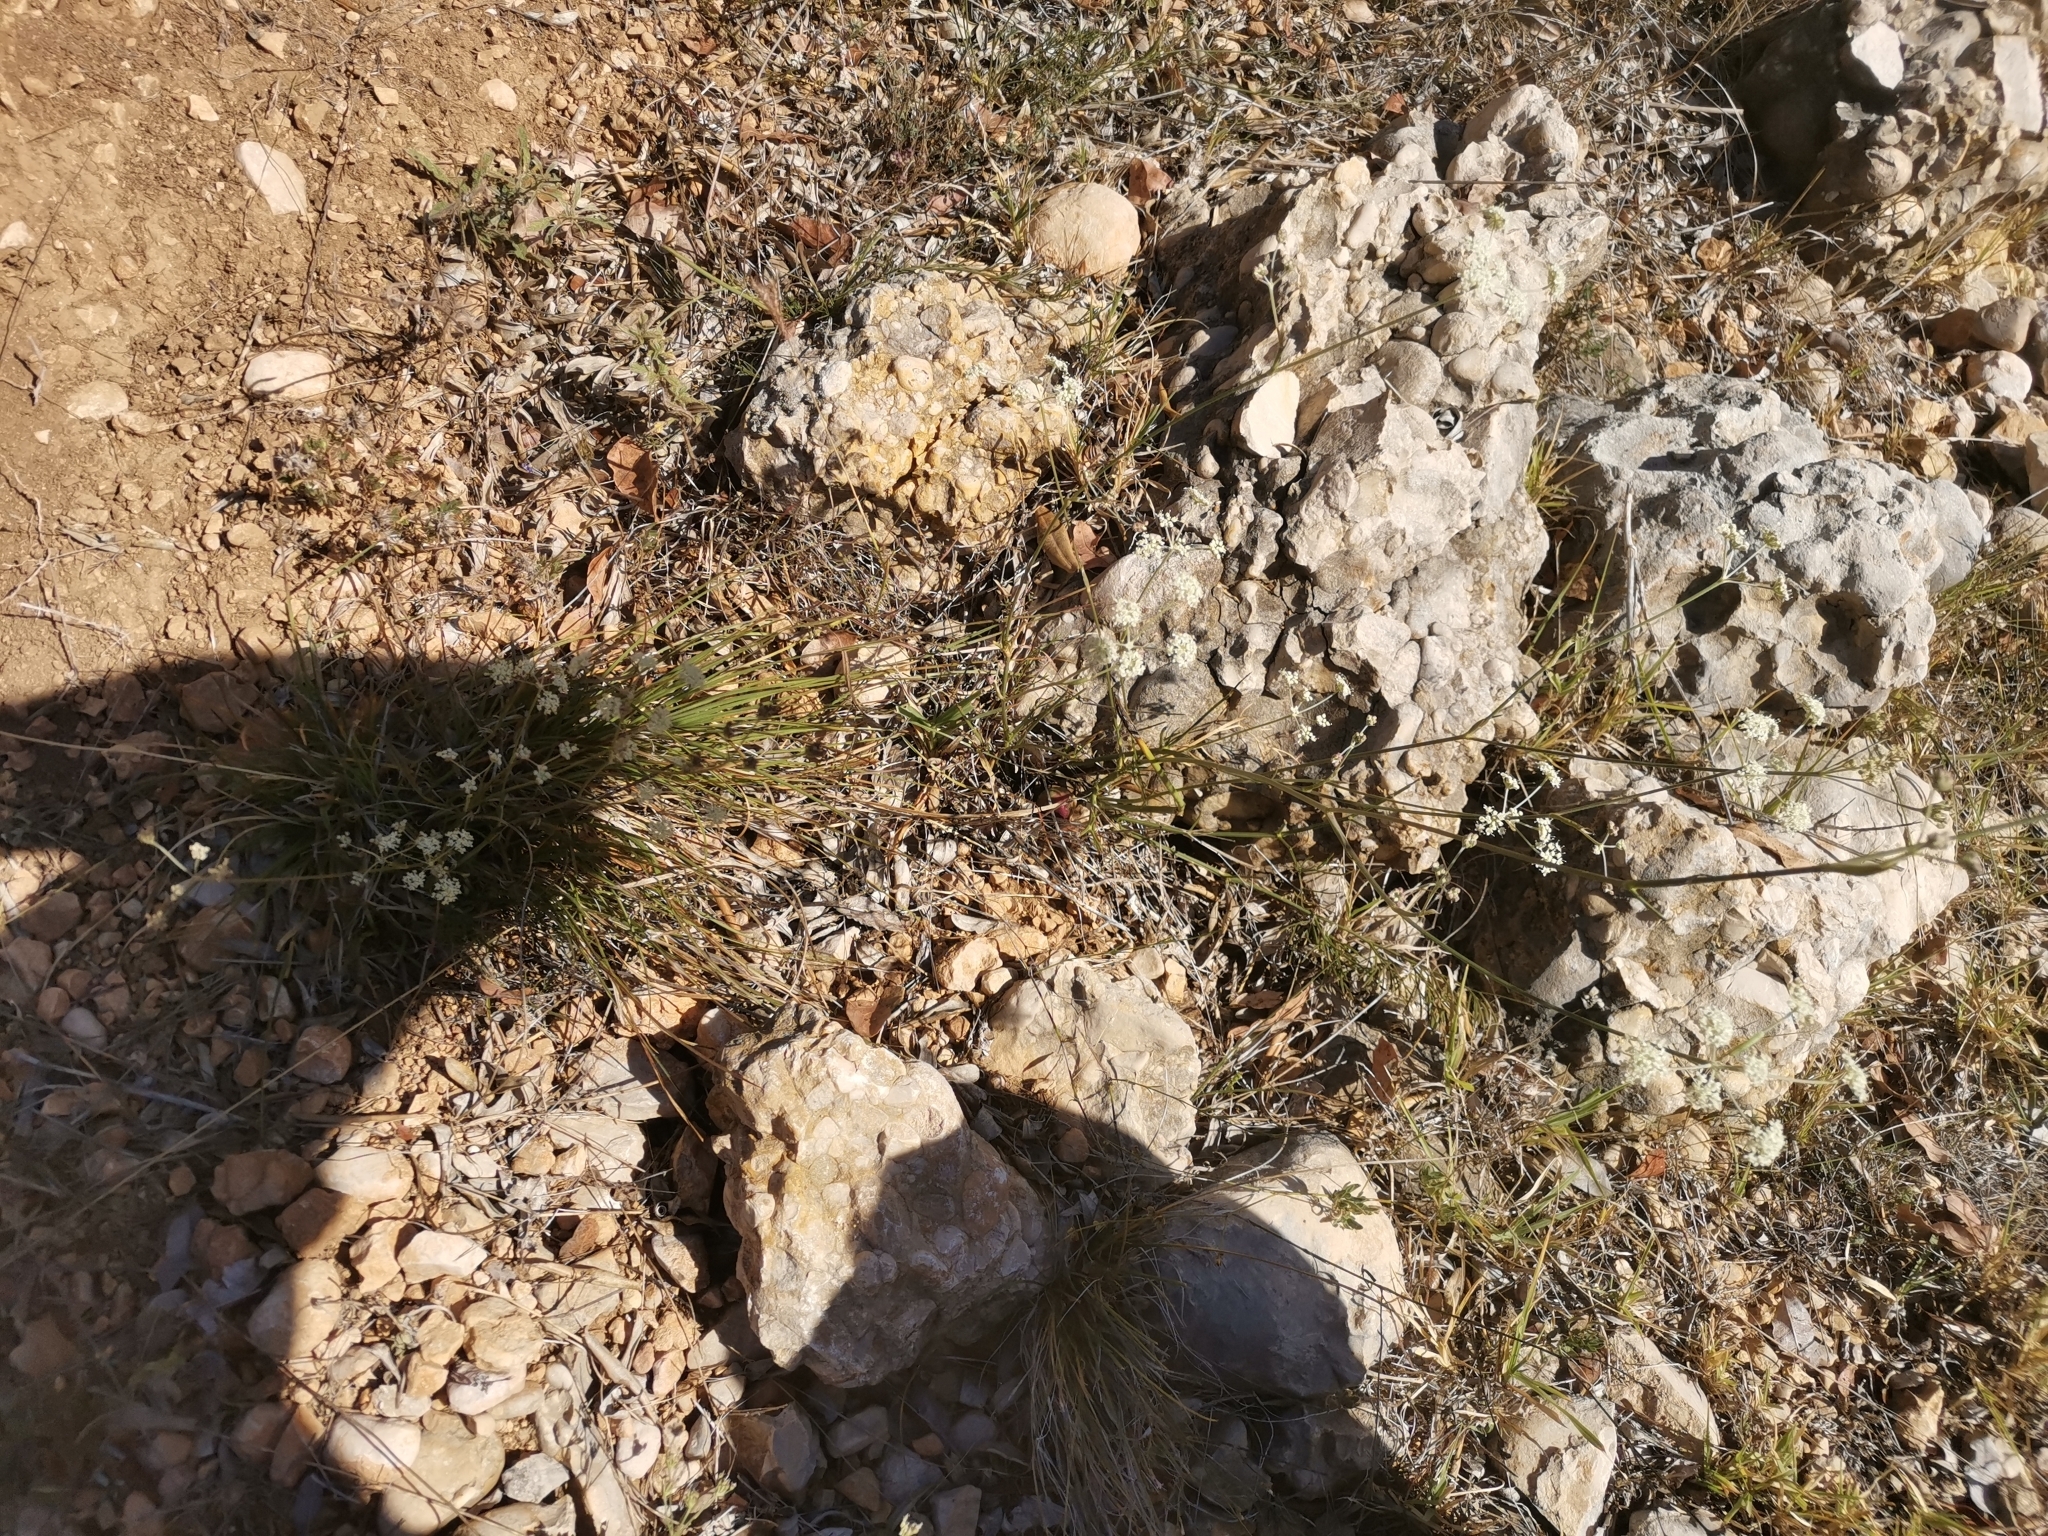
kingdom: Plantae
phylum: Tracheophyta
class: Magnoliopsida
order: Apiales
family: Apiaceae
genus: Seseli
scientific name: Seseli montanum
